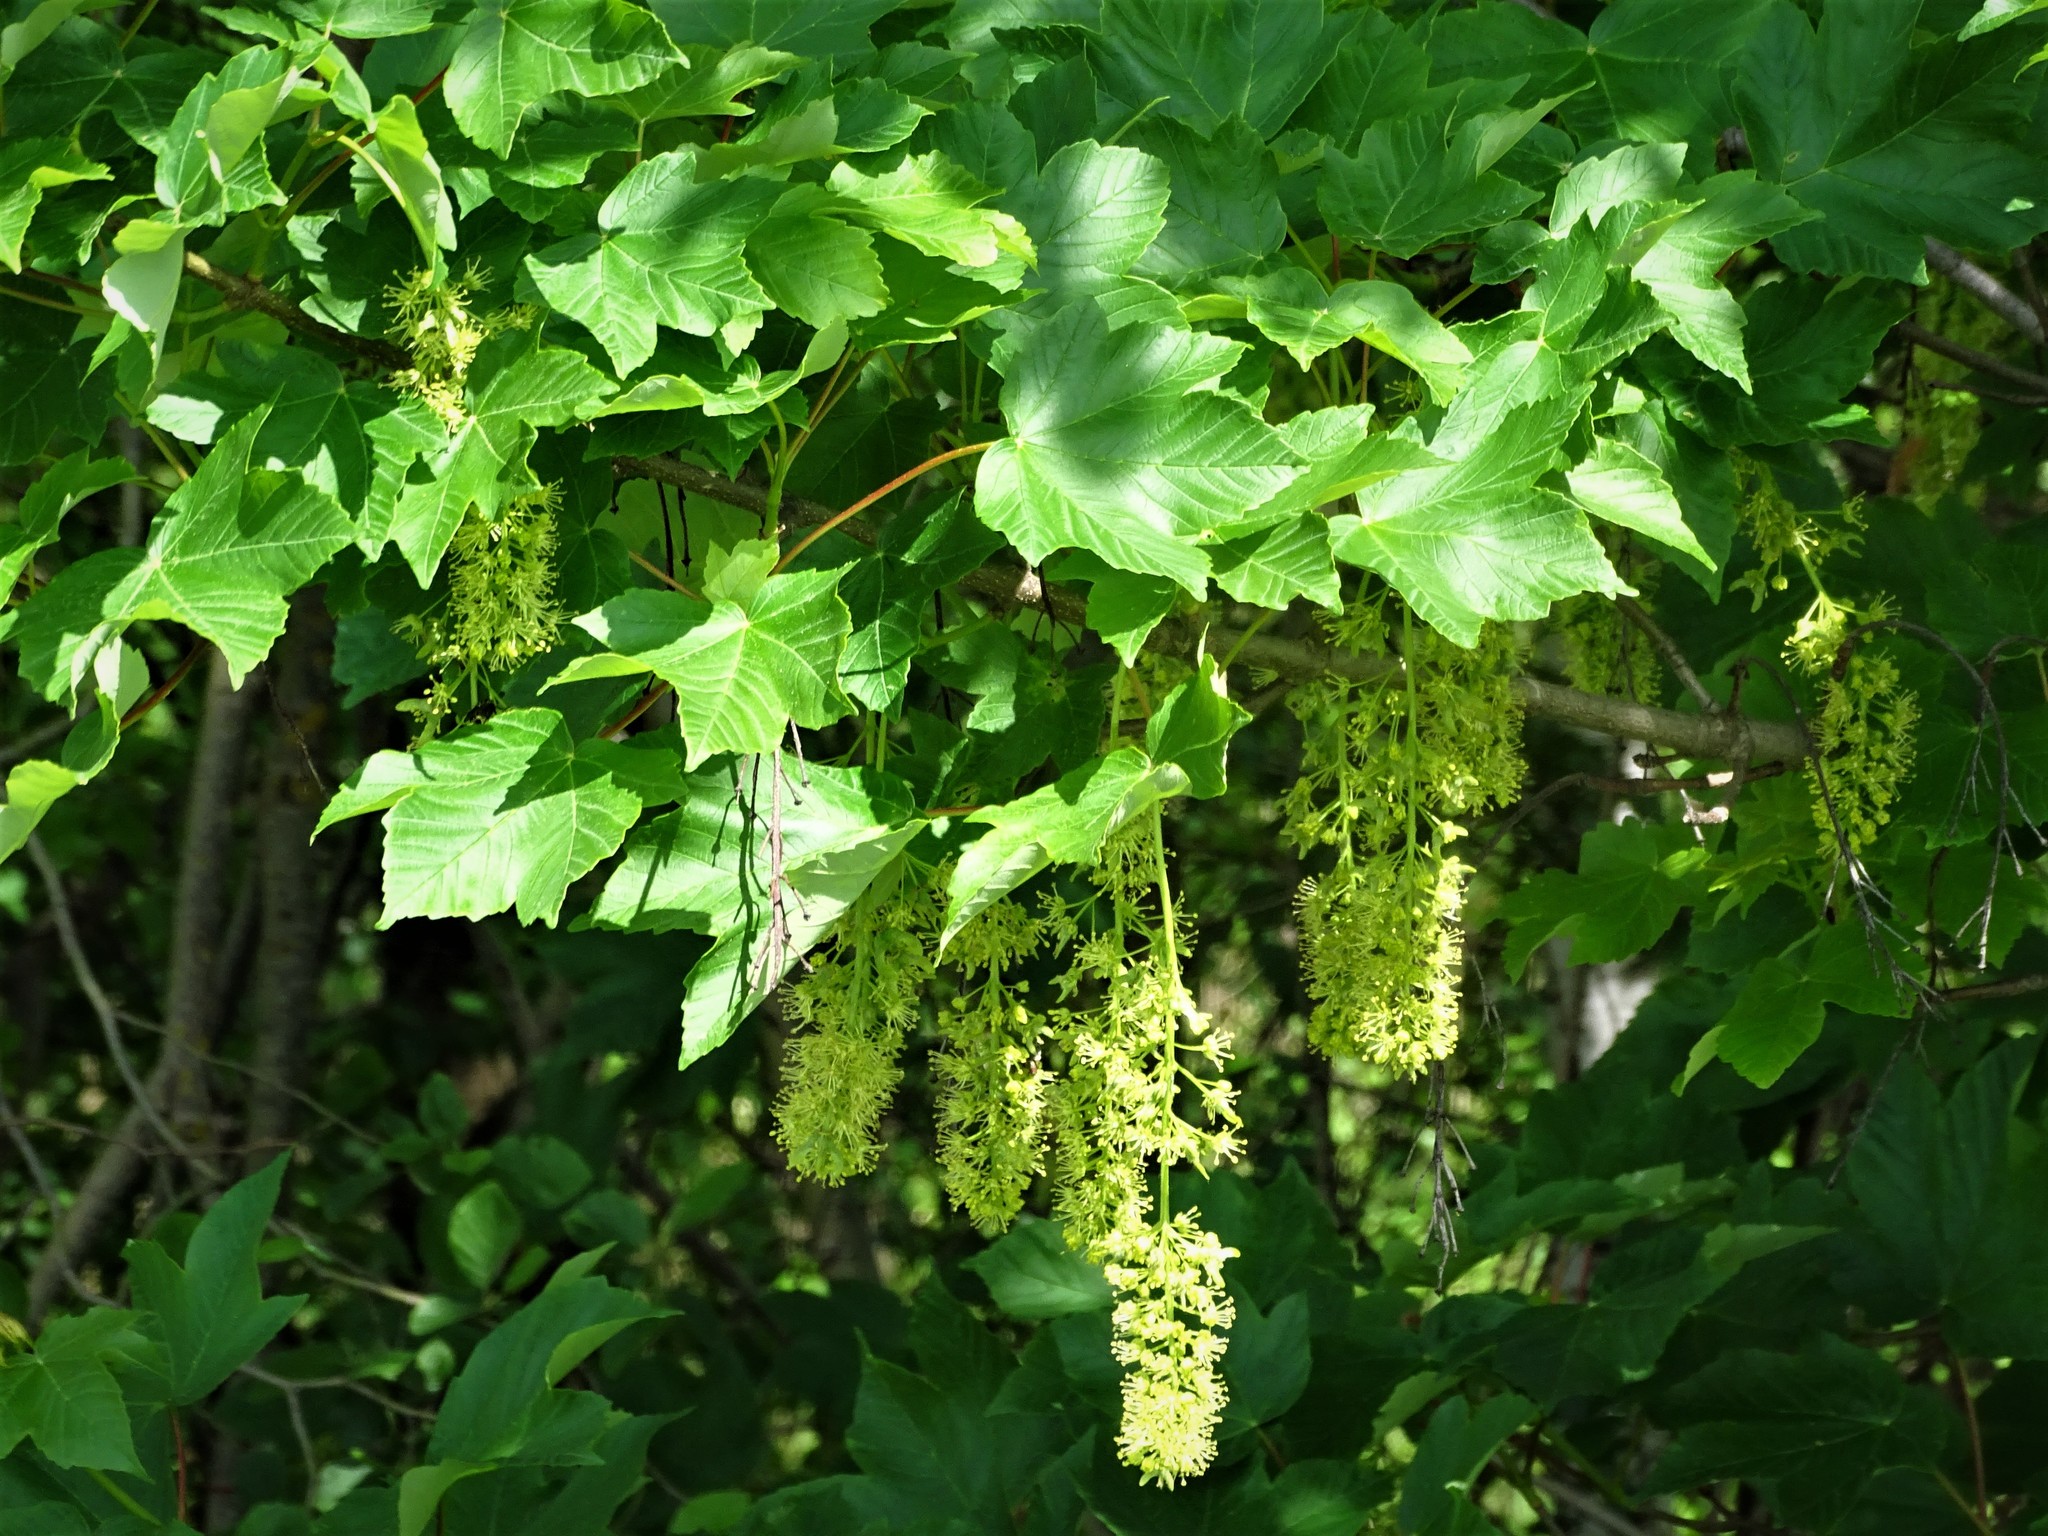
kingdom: Plantae
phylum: Tracheophyta
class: Magnoliopsida
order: Sapindales
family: Sapindaceae
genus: Acer
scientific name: Acer pseudoplatanus
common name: Sycamore
